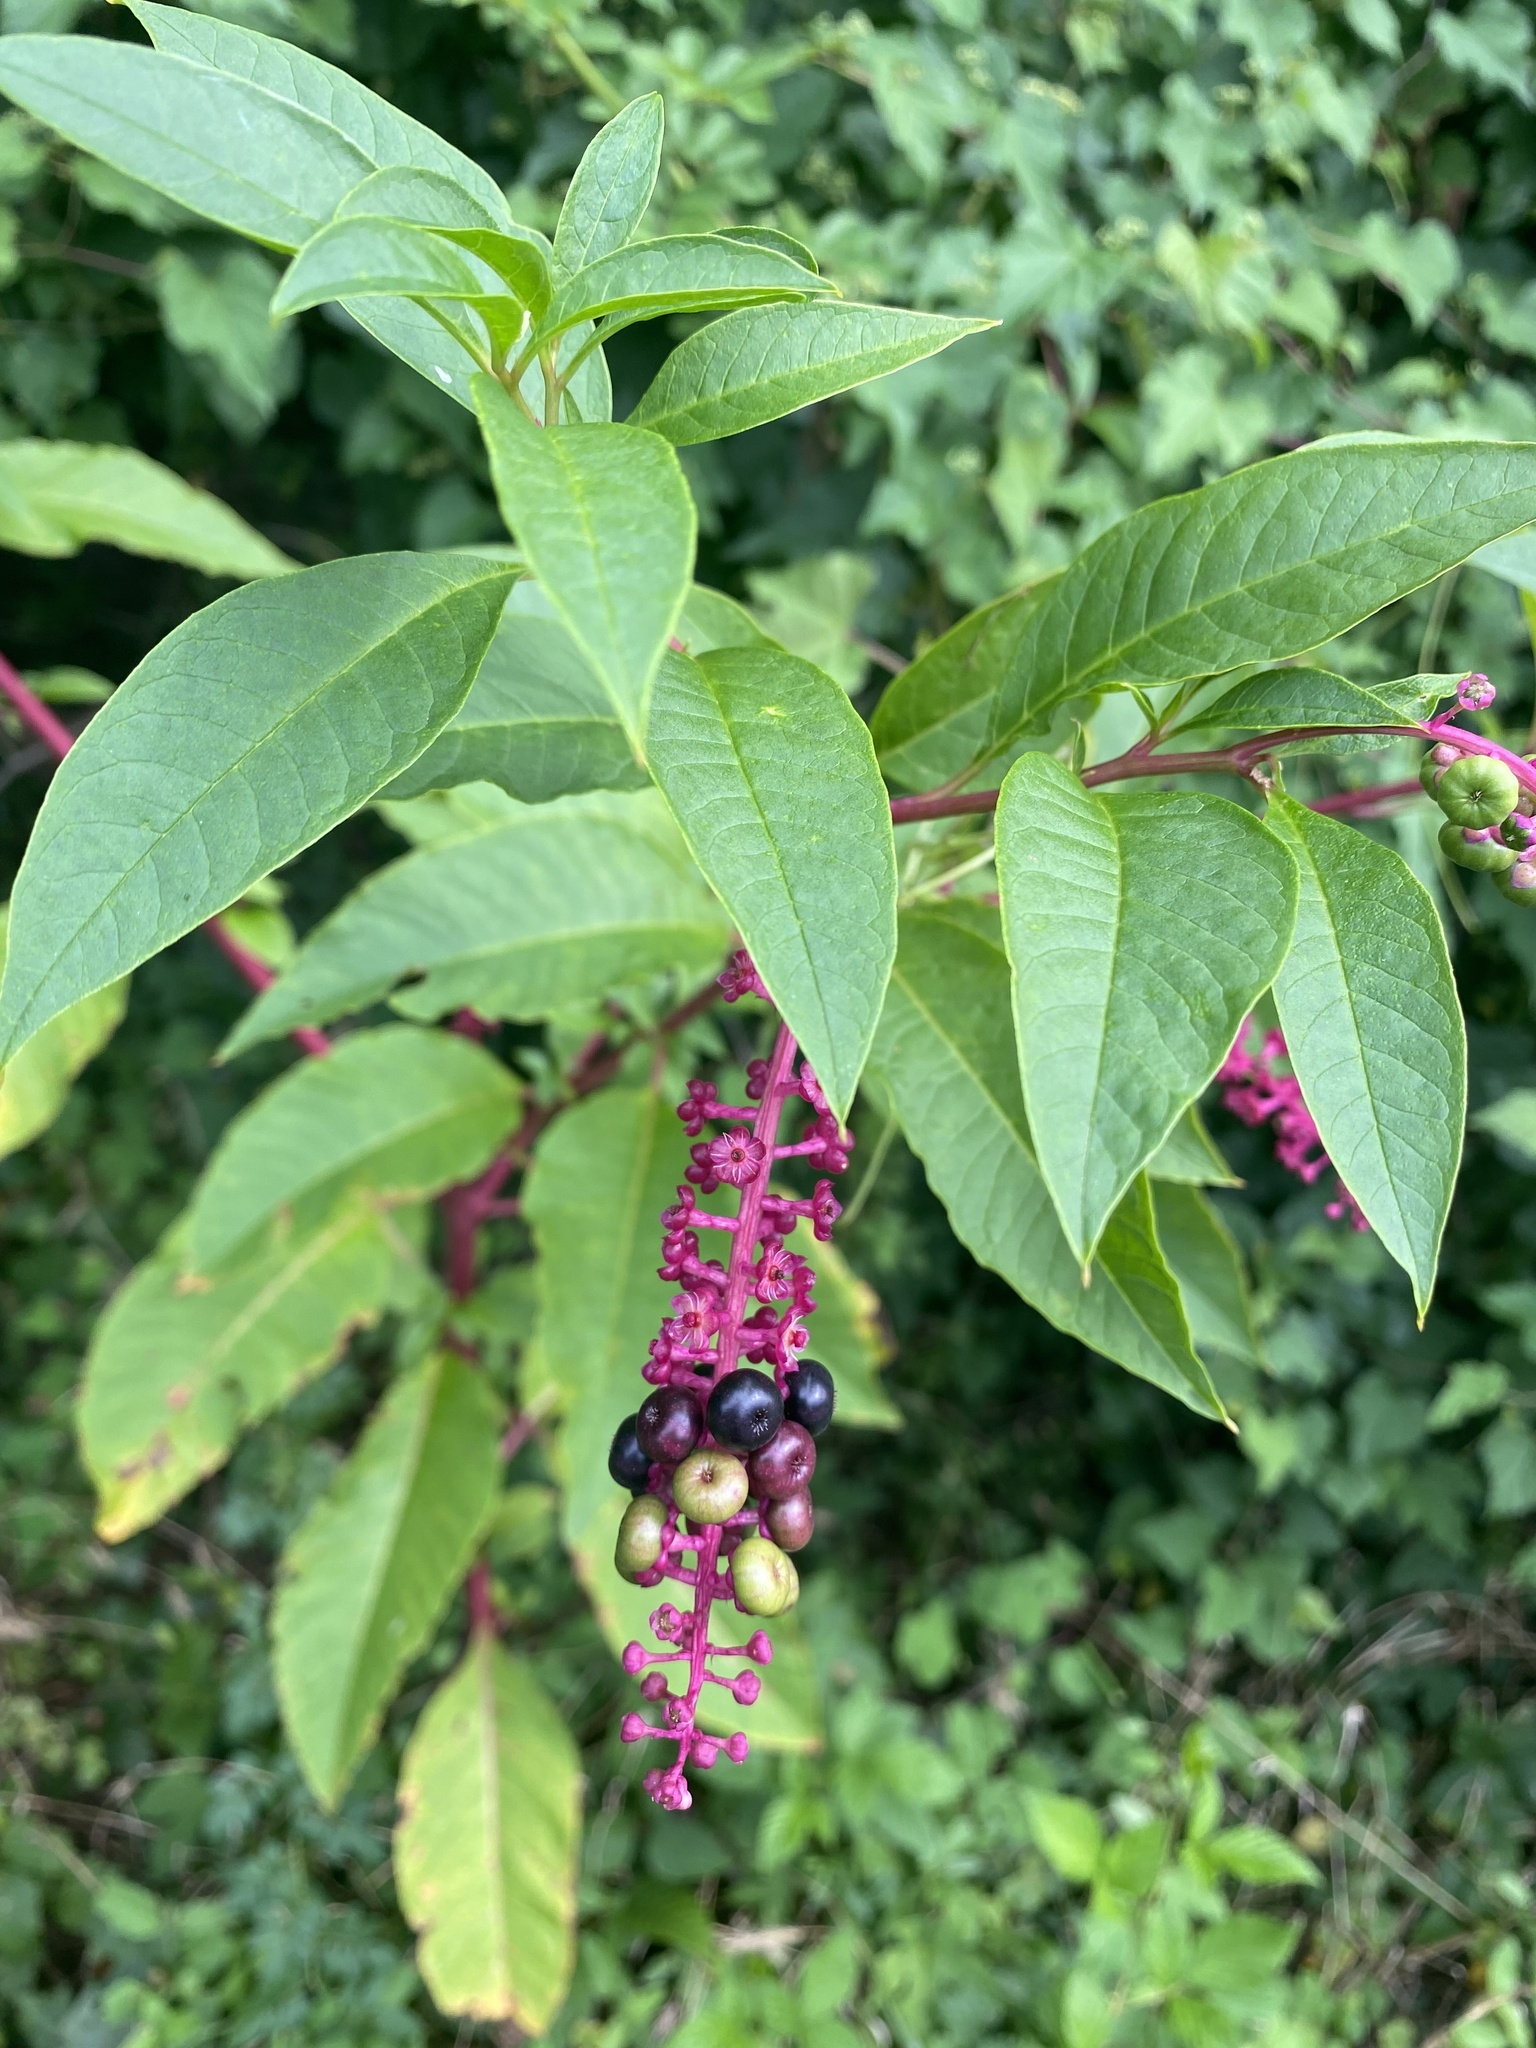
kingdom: Plantae
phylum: Tracheophyta
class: Magnoliopsida
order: Caryophyllales
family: Phytolaccaceae
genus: Phytolacca
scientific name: Phytolacca americana
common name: American pokeweed
